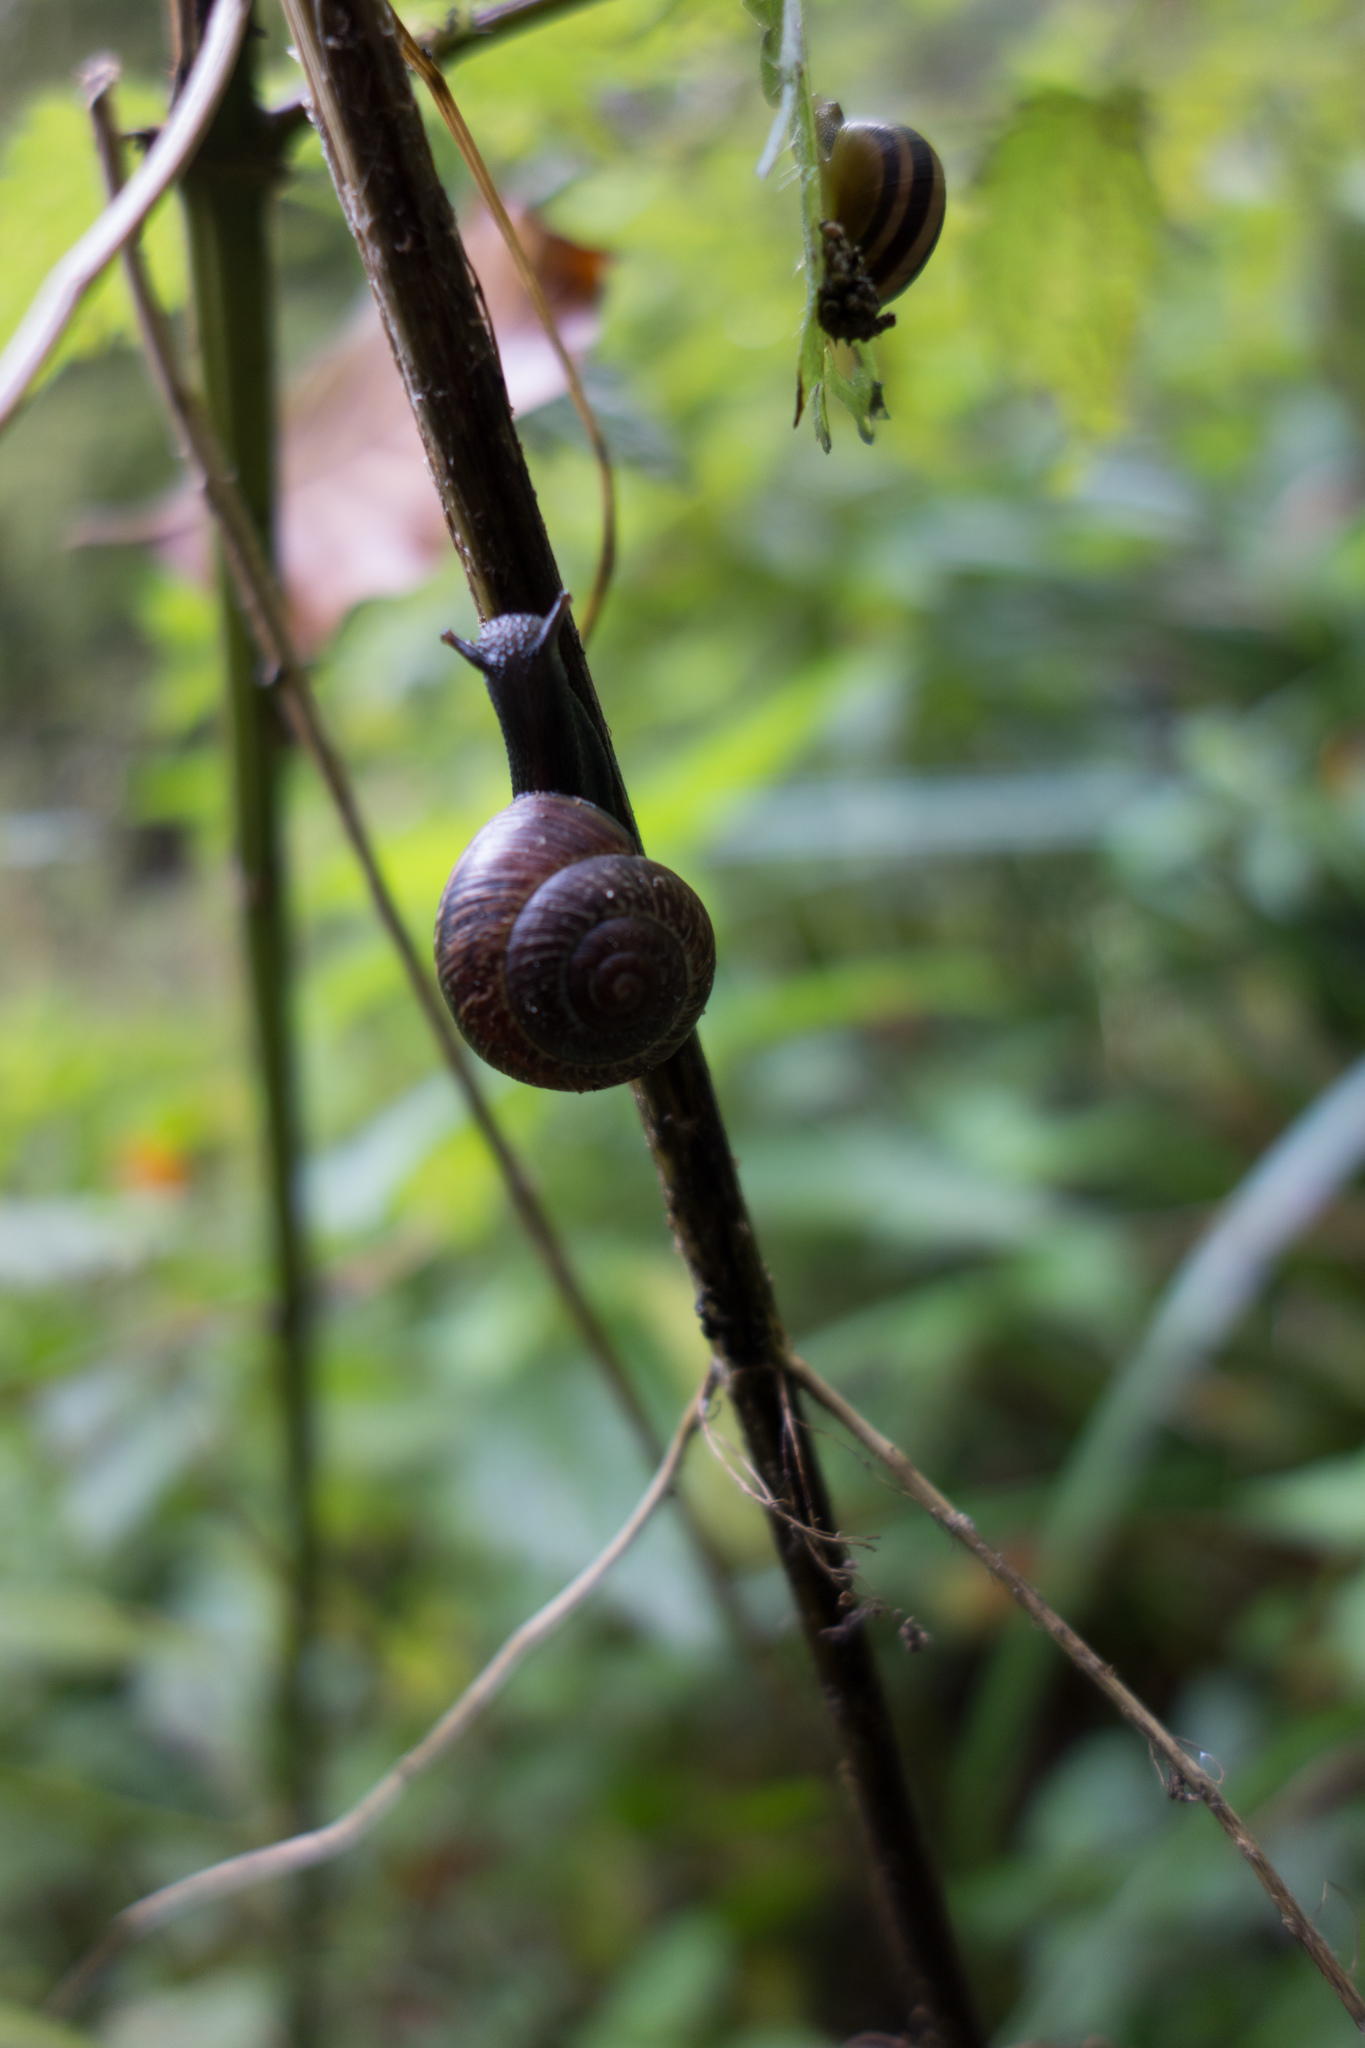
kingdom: Animalia
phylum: Mollusca
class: Gastropoda
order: Stylommatophora
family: Helicidae
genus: Arianta
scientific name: Arianta arbustorum
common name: Copse snail
